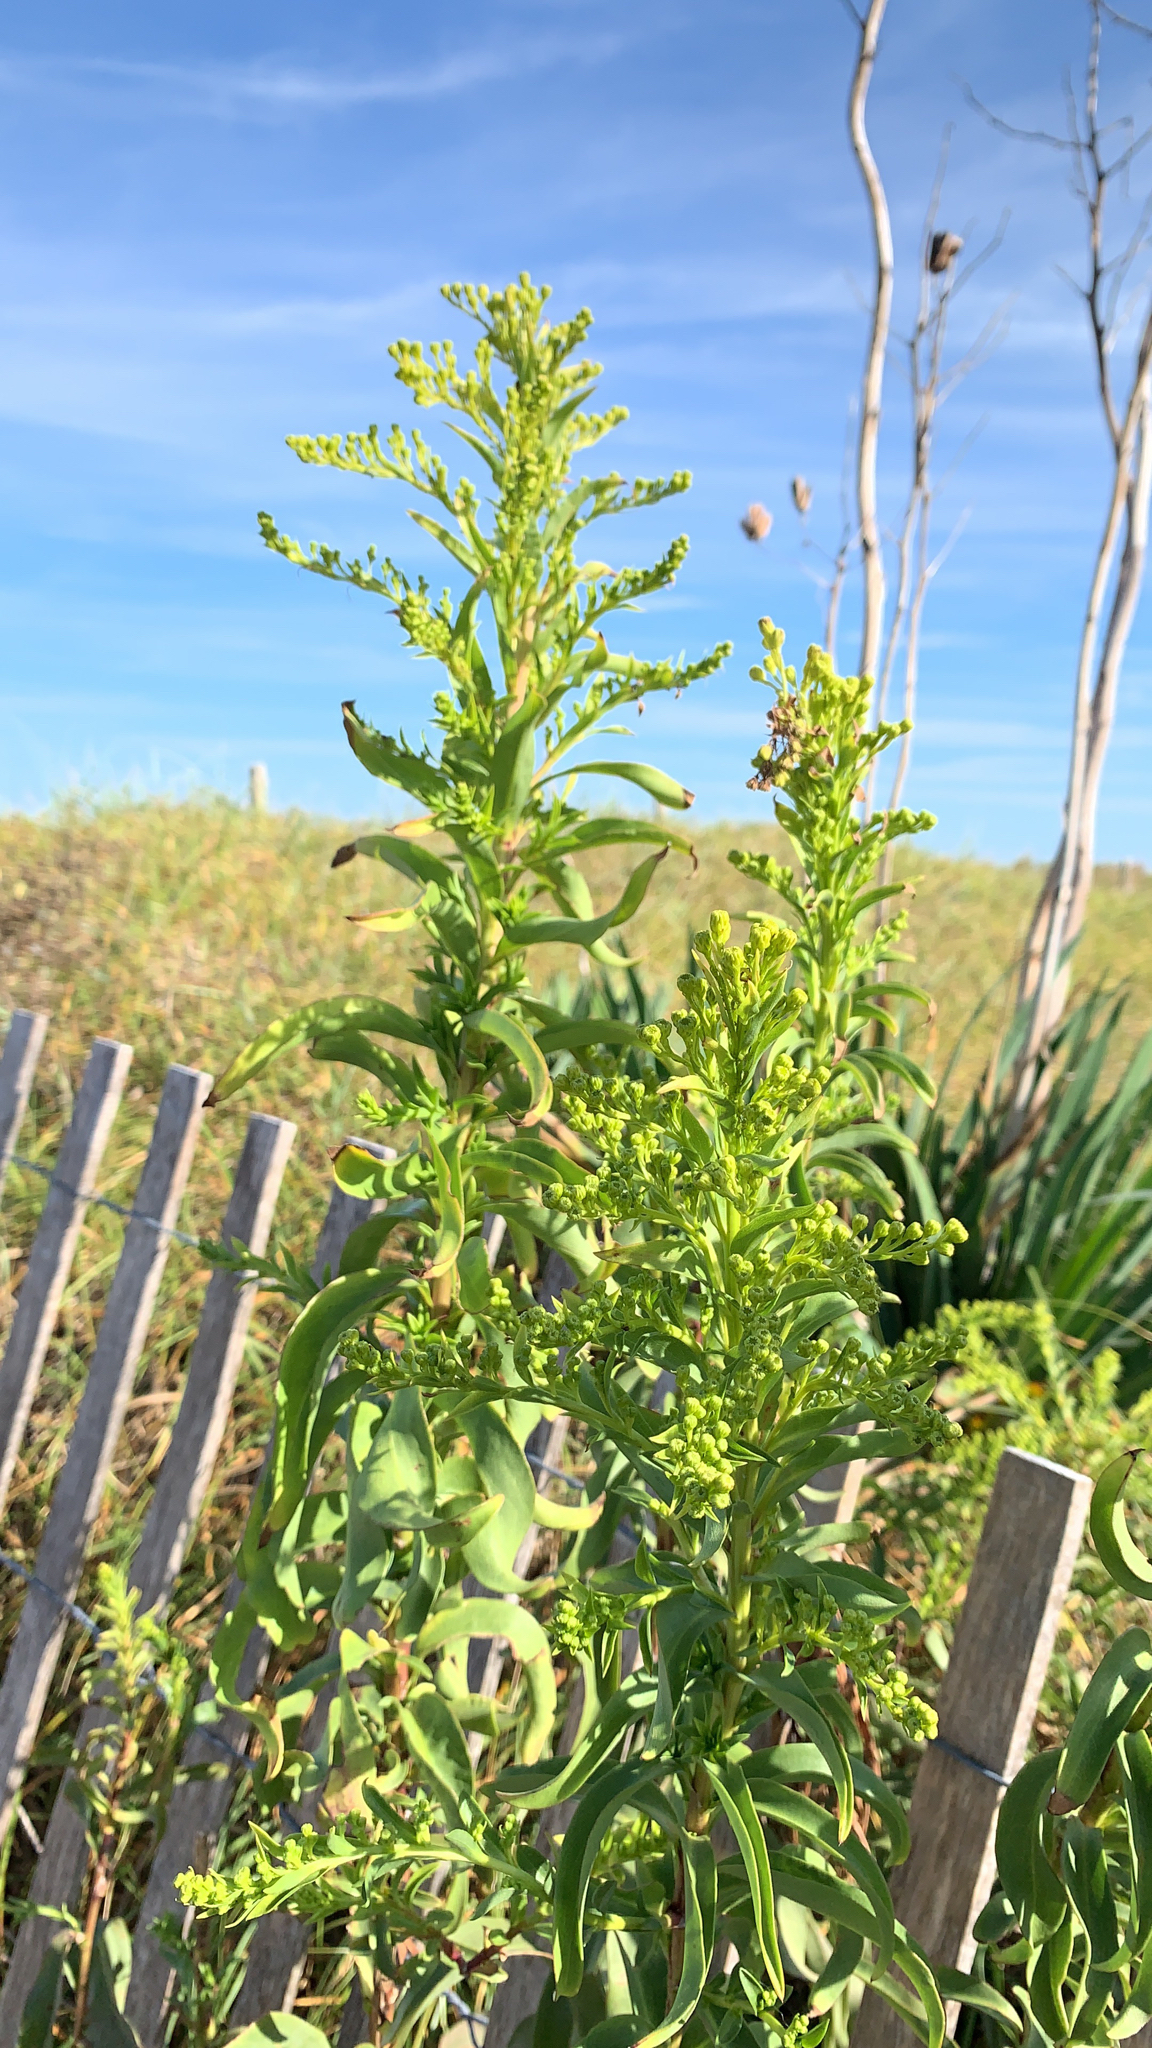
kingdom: Plantae
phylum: Tracheophyta
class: Magnoliopsida
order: Asterales
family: Asteraceae
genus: Solidago
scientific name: Solidago sempervirens
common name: Salt-marsh goldenrod
